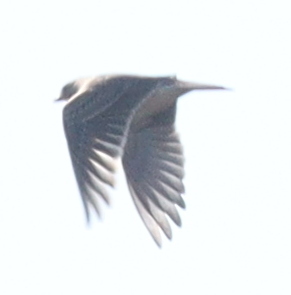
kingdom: Animalia
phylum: Chordata
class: Aves
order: Passeriformes
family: Alaudidae
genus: Alauda
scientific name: Alauda arvensis
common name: Eurasian skylark
